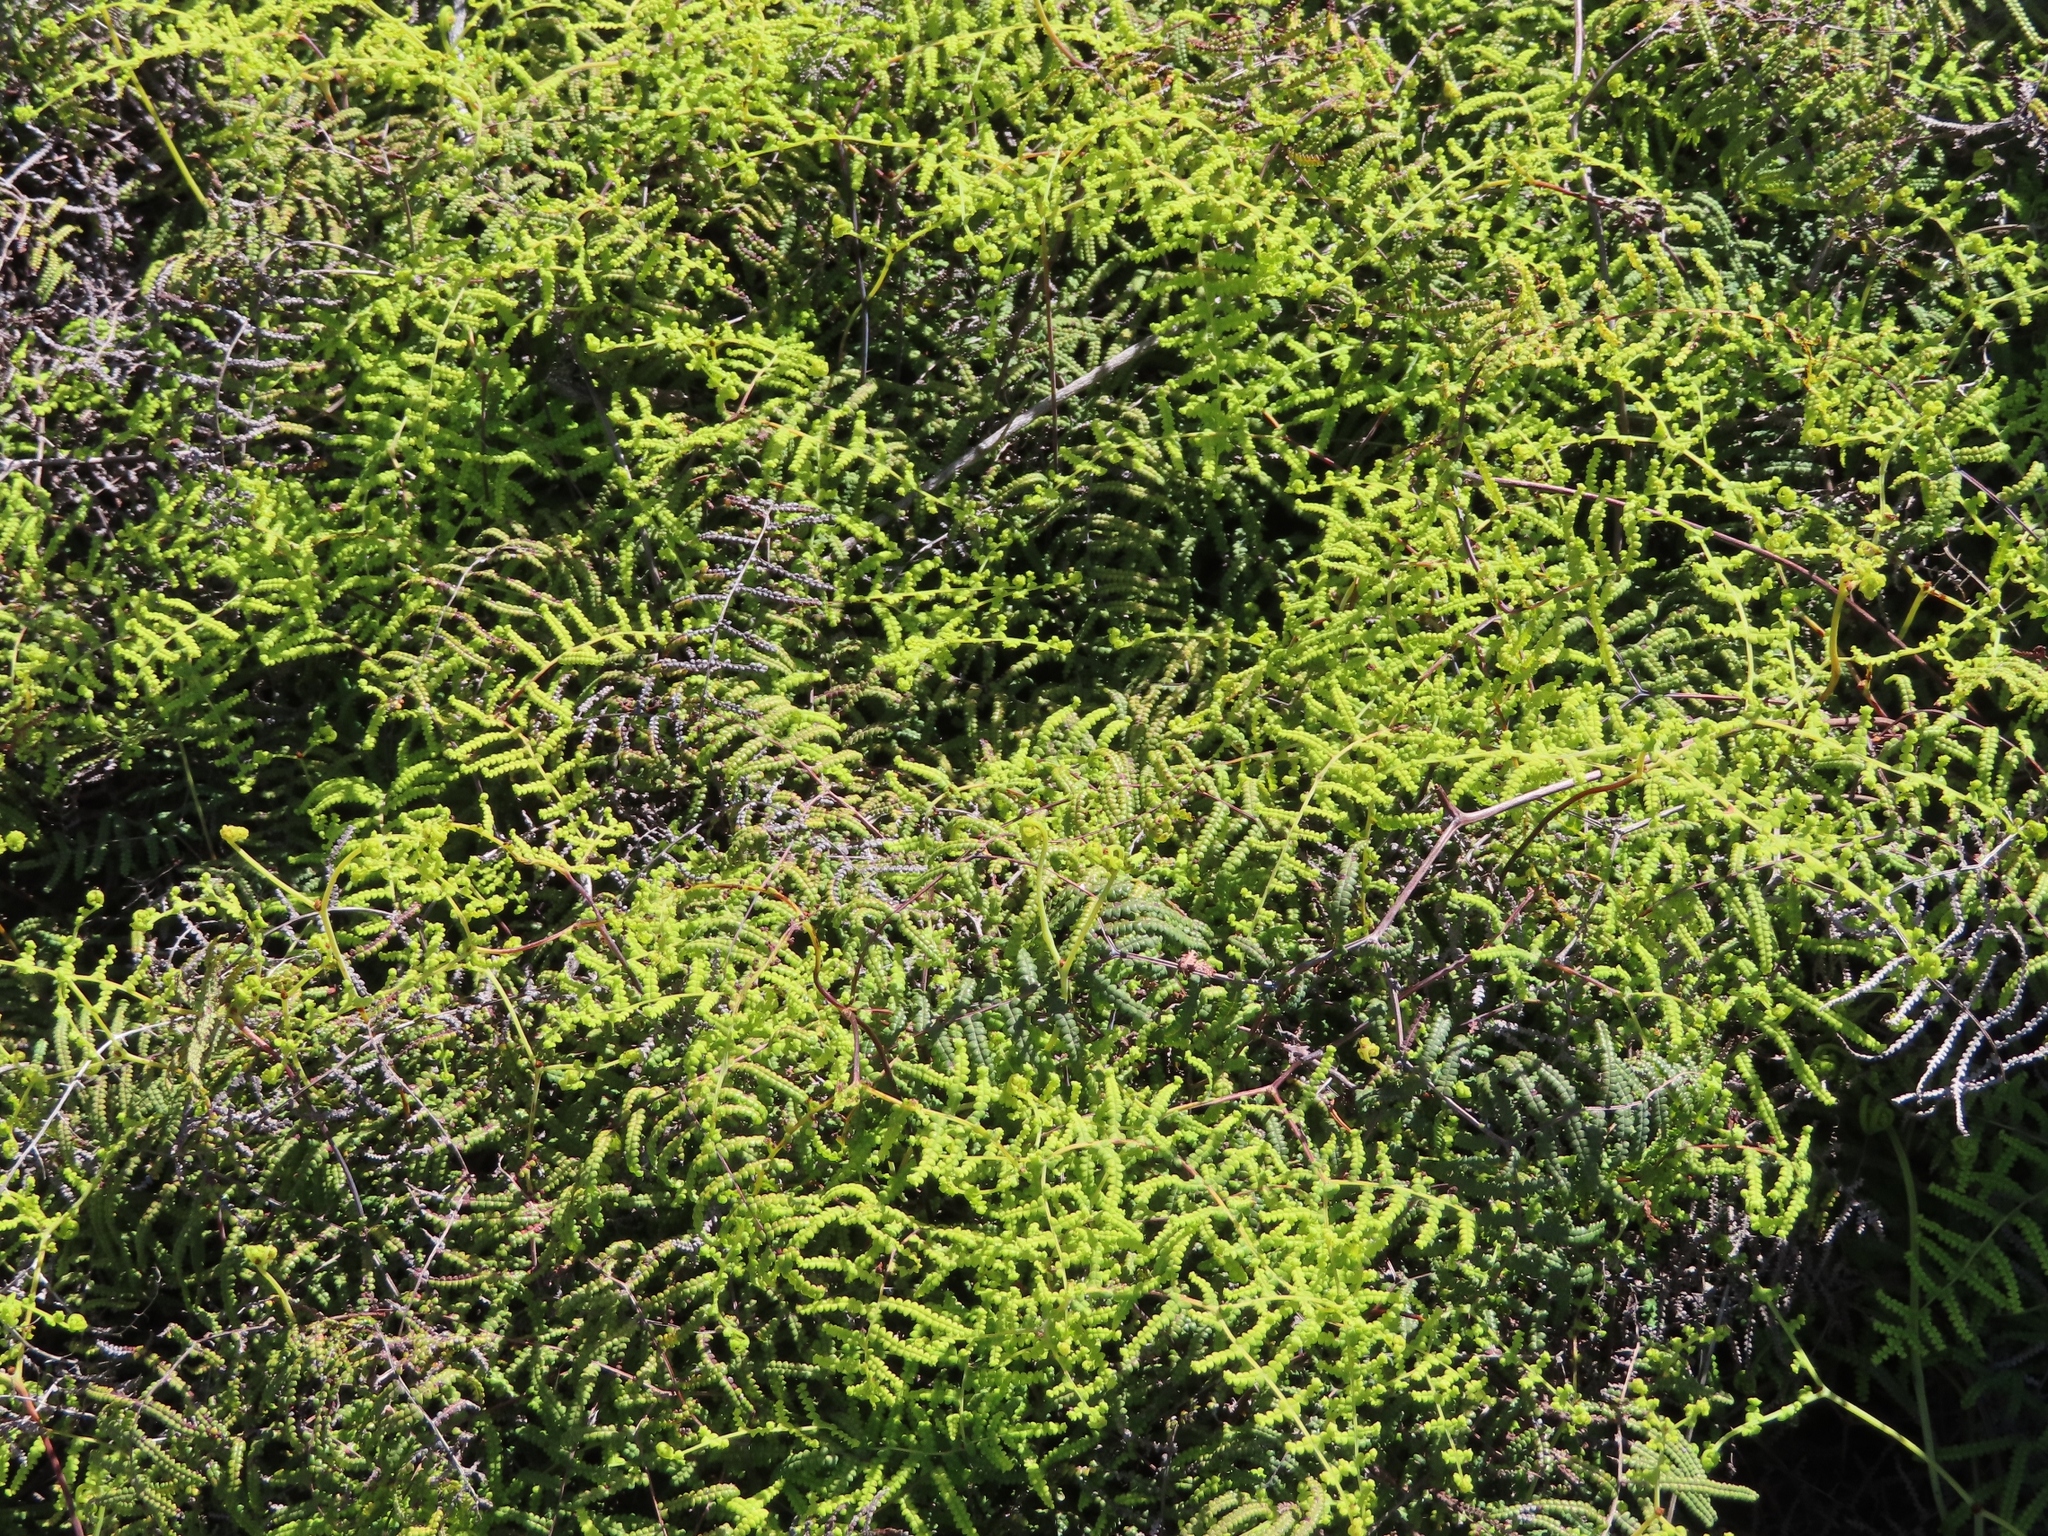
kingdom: Plantae
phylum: Tracheophyta
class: Polypodiopsida
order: Gleicheniales
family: Gleicheniaceae
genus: Gleichenia
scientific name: Gleichenia polypodioides
